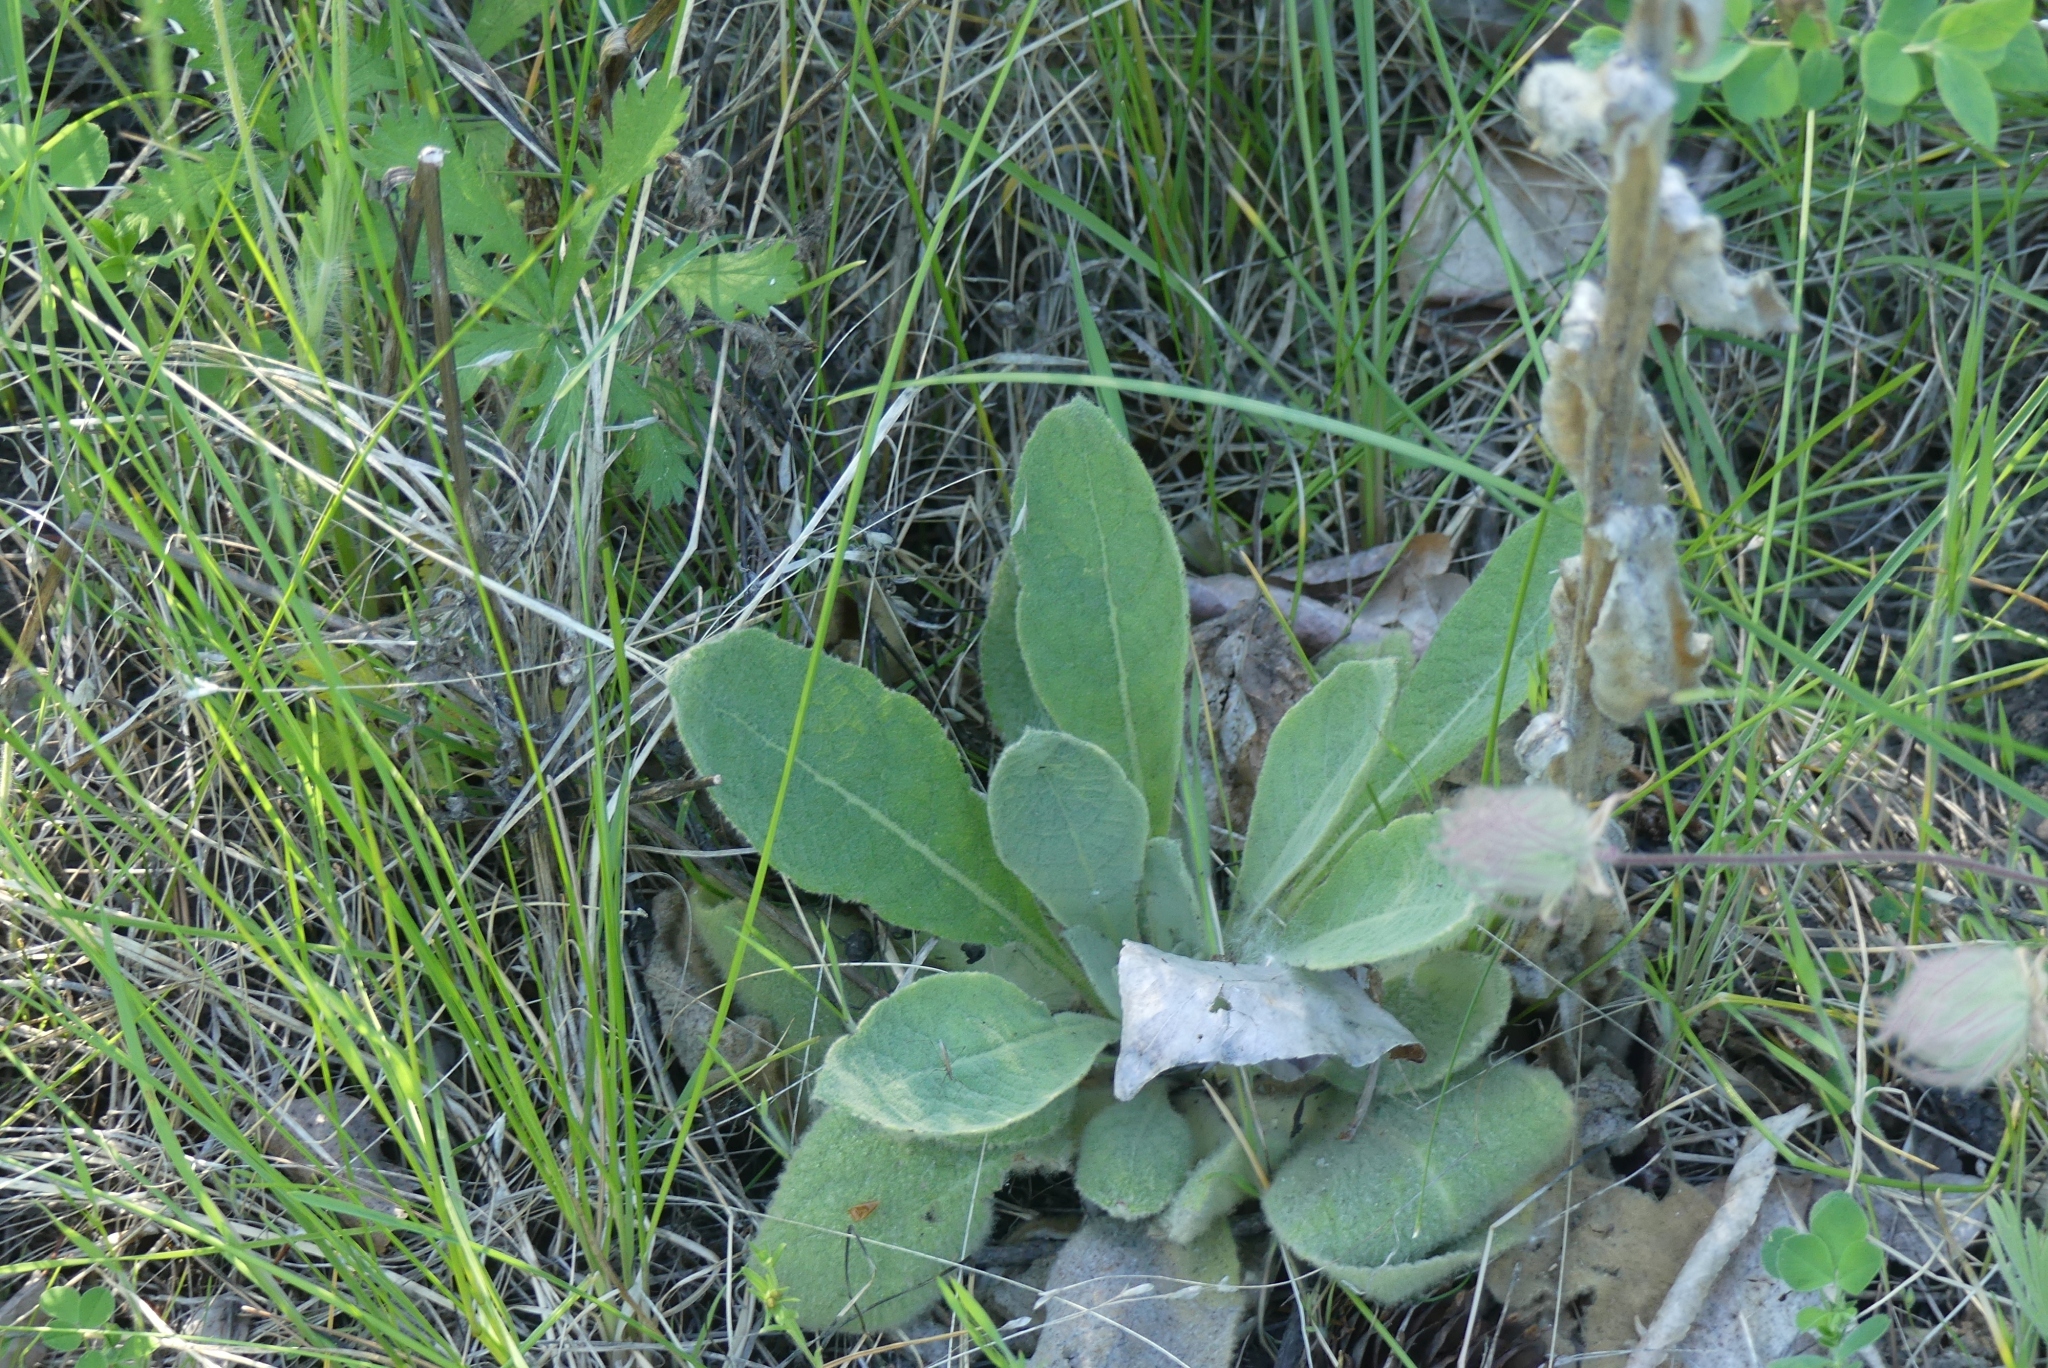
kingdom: Plantae
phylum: Tracheophyta
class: Magnoliopsida
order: Lamiales
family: Scrophulariaceae
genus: Verbascum
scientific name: Verbascum thapsus
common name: Common mullein
